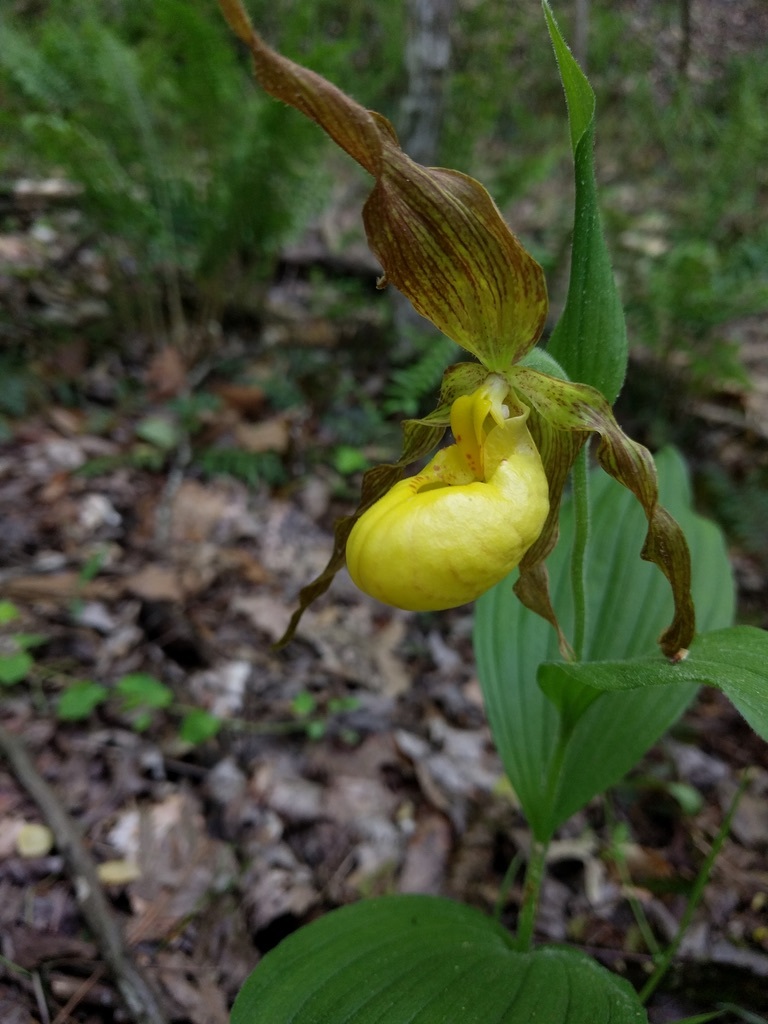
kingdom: Plantae
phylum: Tracheophyta
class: Liliopsida
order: Asparagales
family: Orchidaceae
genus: Cypripedium
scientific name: Cypripedium parviflorum
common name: American yellow lady's-slipper
